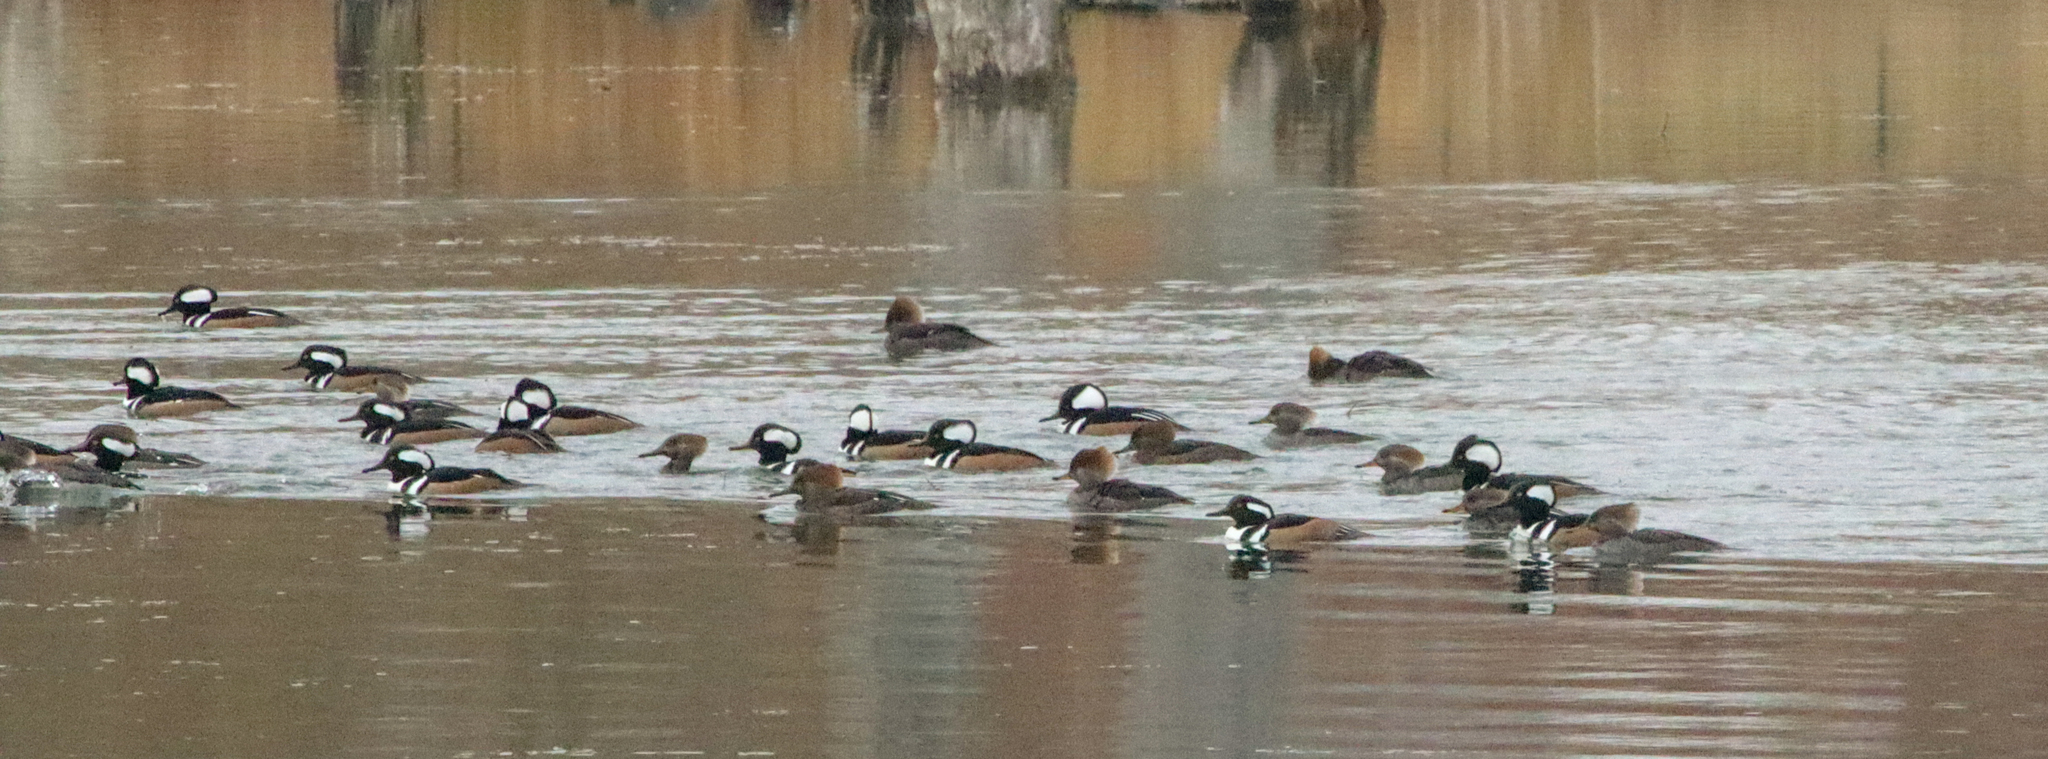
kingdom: Animalia
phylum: Chordata
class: Aves
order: Anseriformes
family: Anatidae
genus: Lophodytes
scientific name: Lophodytes cucullatus
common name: Hooded merganser
